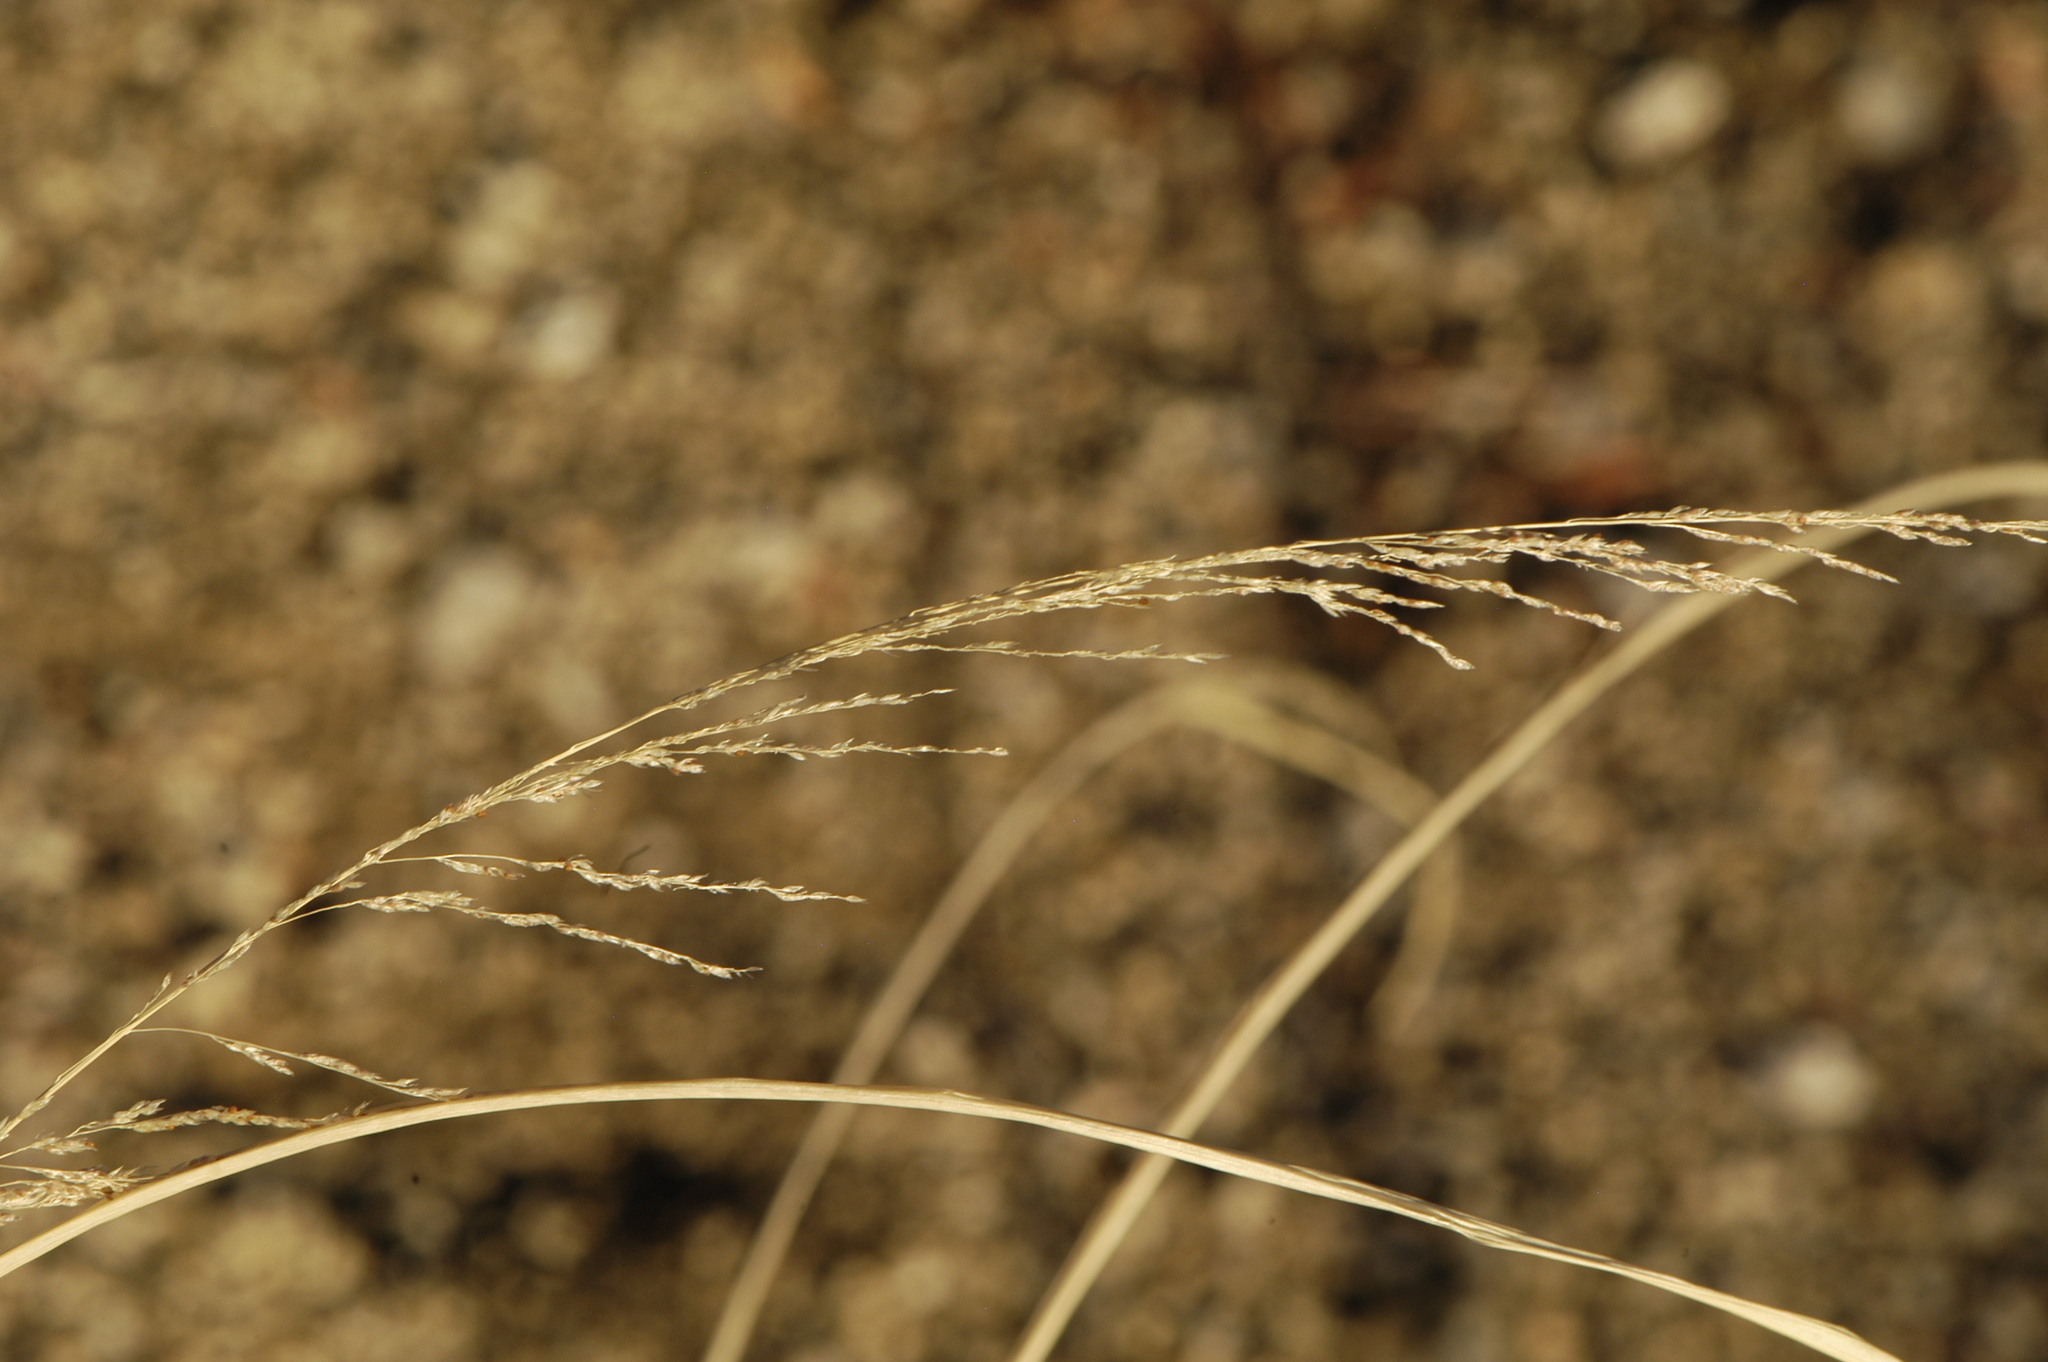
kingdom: Plantae
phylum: Tracheophyta
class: Liliopsida
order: Poales
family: Poaceae
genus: Sporobolus
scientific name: Sporobolus cryptandrus
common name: Sand dropseed
